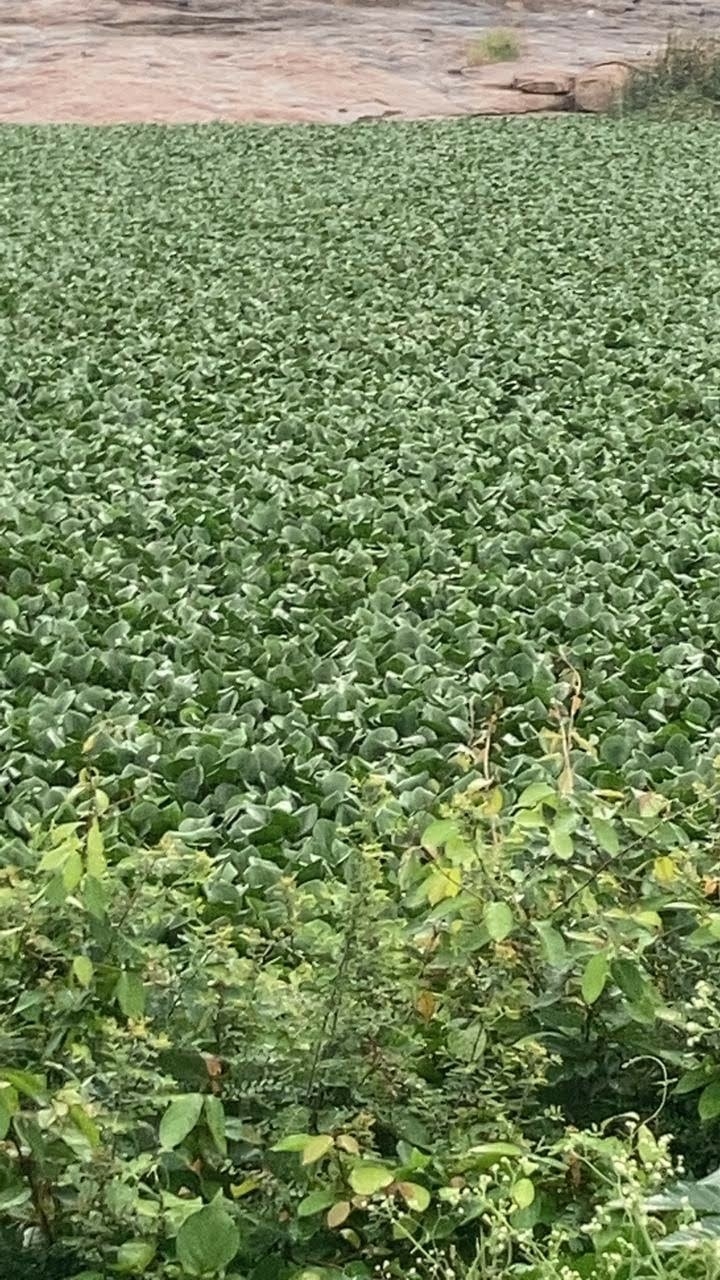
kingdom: Plantae
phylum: Tracheophyta
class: Liliopsida
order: Alismatales
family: Araceae
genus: Pistia
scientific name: Pistia stratiotes
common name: Water lettuce
